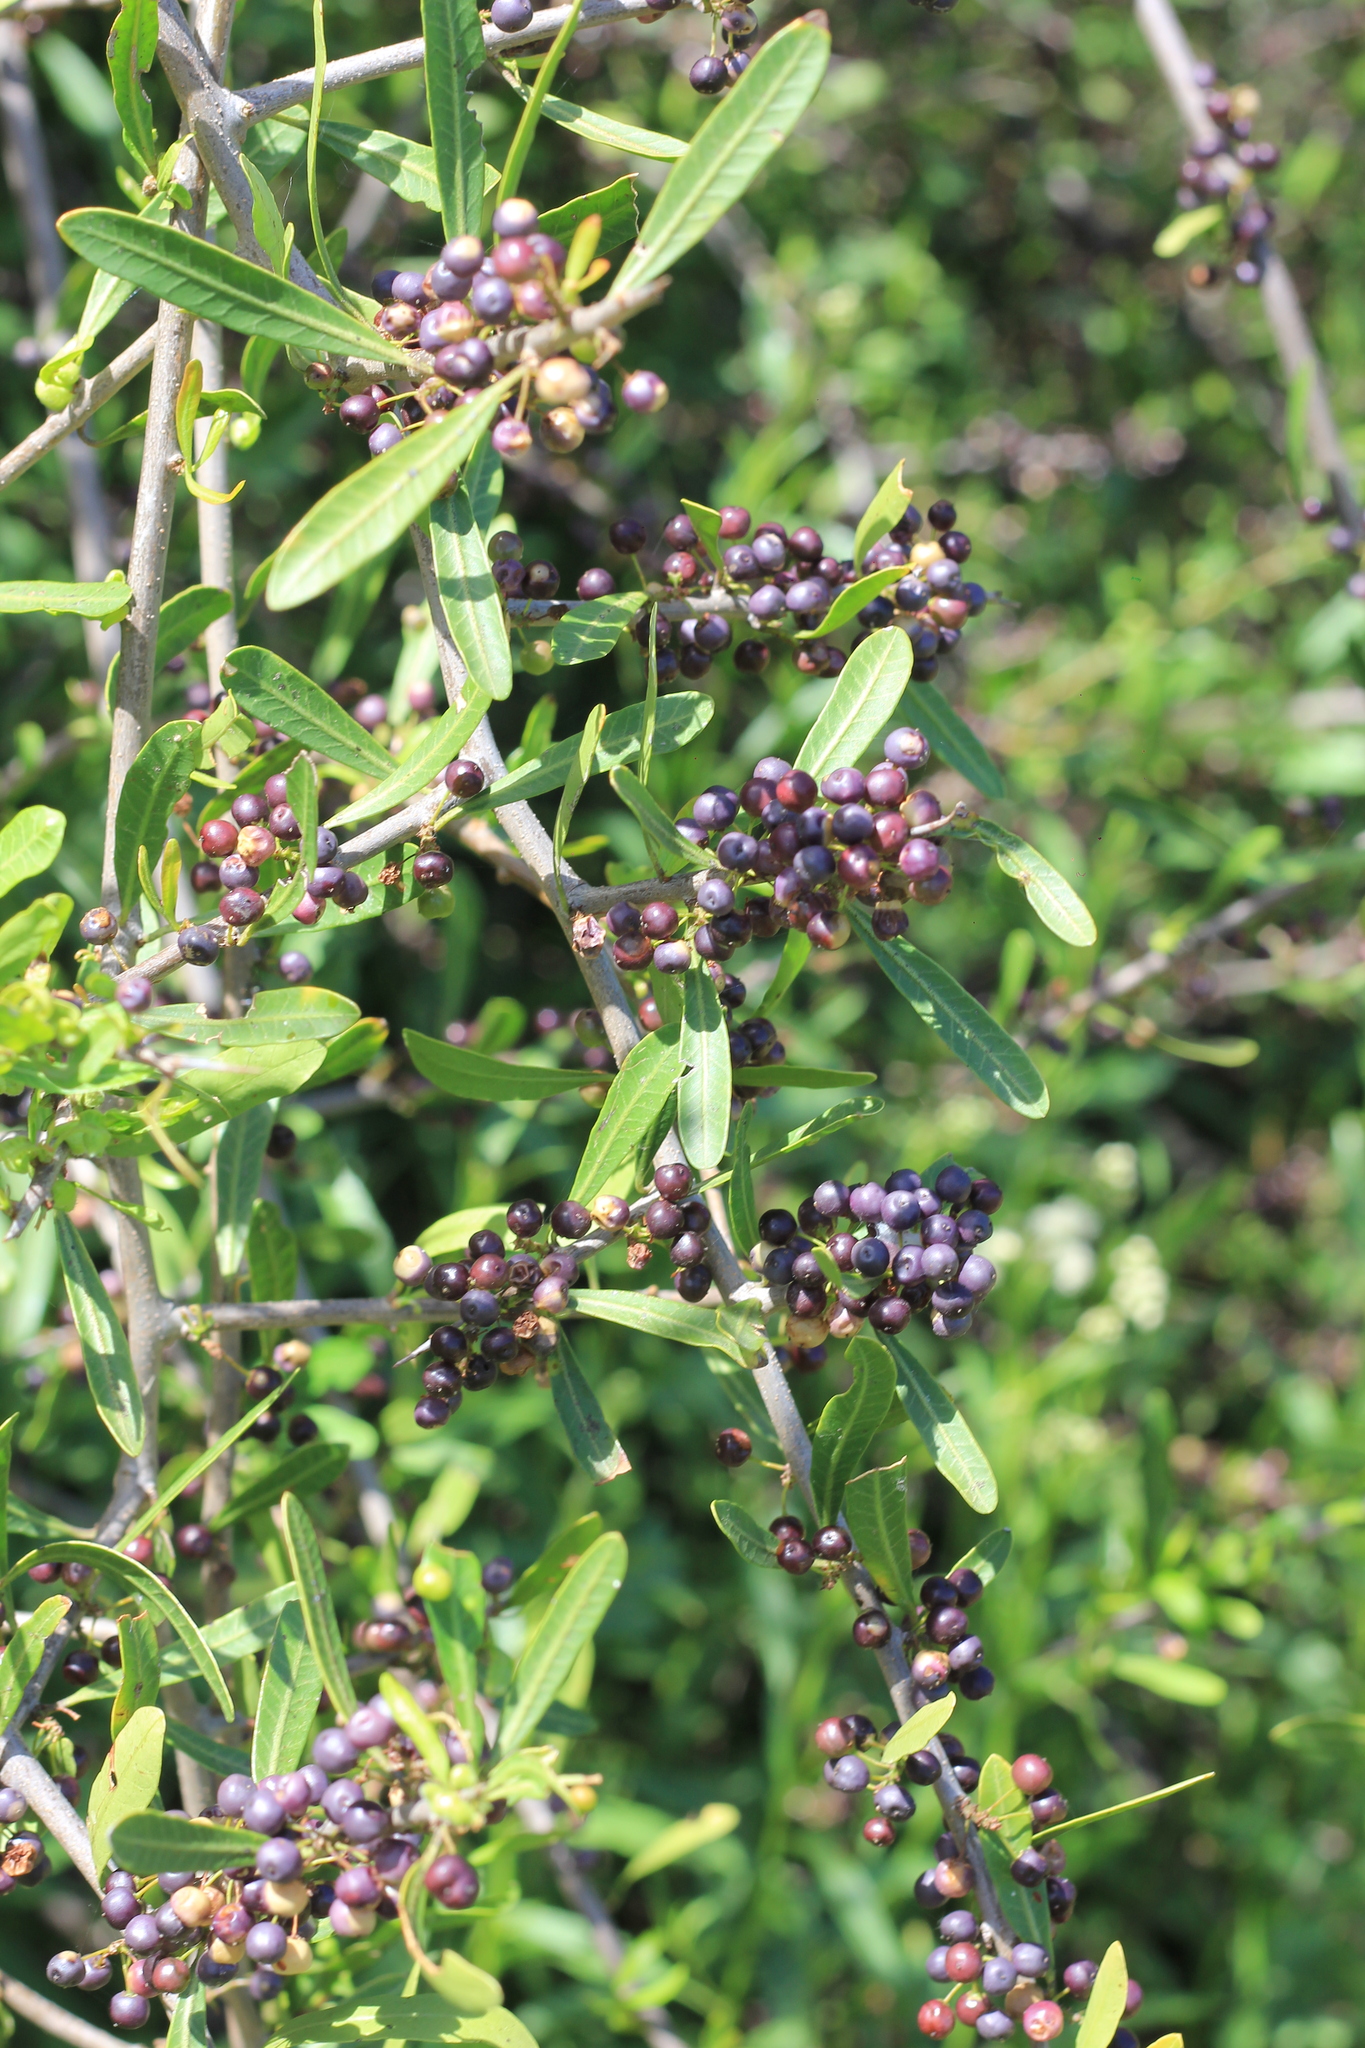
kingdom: Plantae
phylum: Tracheophyta
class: Magnoliopsida
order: Sapindales
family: Anacardiaceae
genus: Schinus
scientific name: Schinus longifolia
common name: Longleaf peppertree
